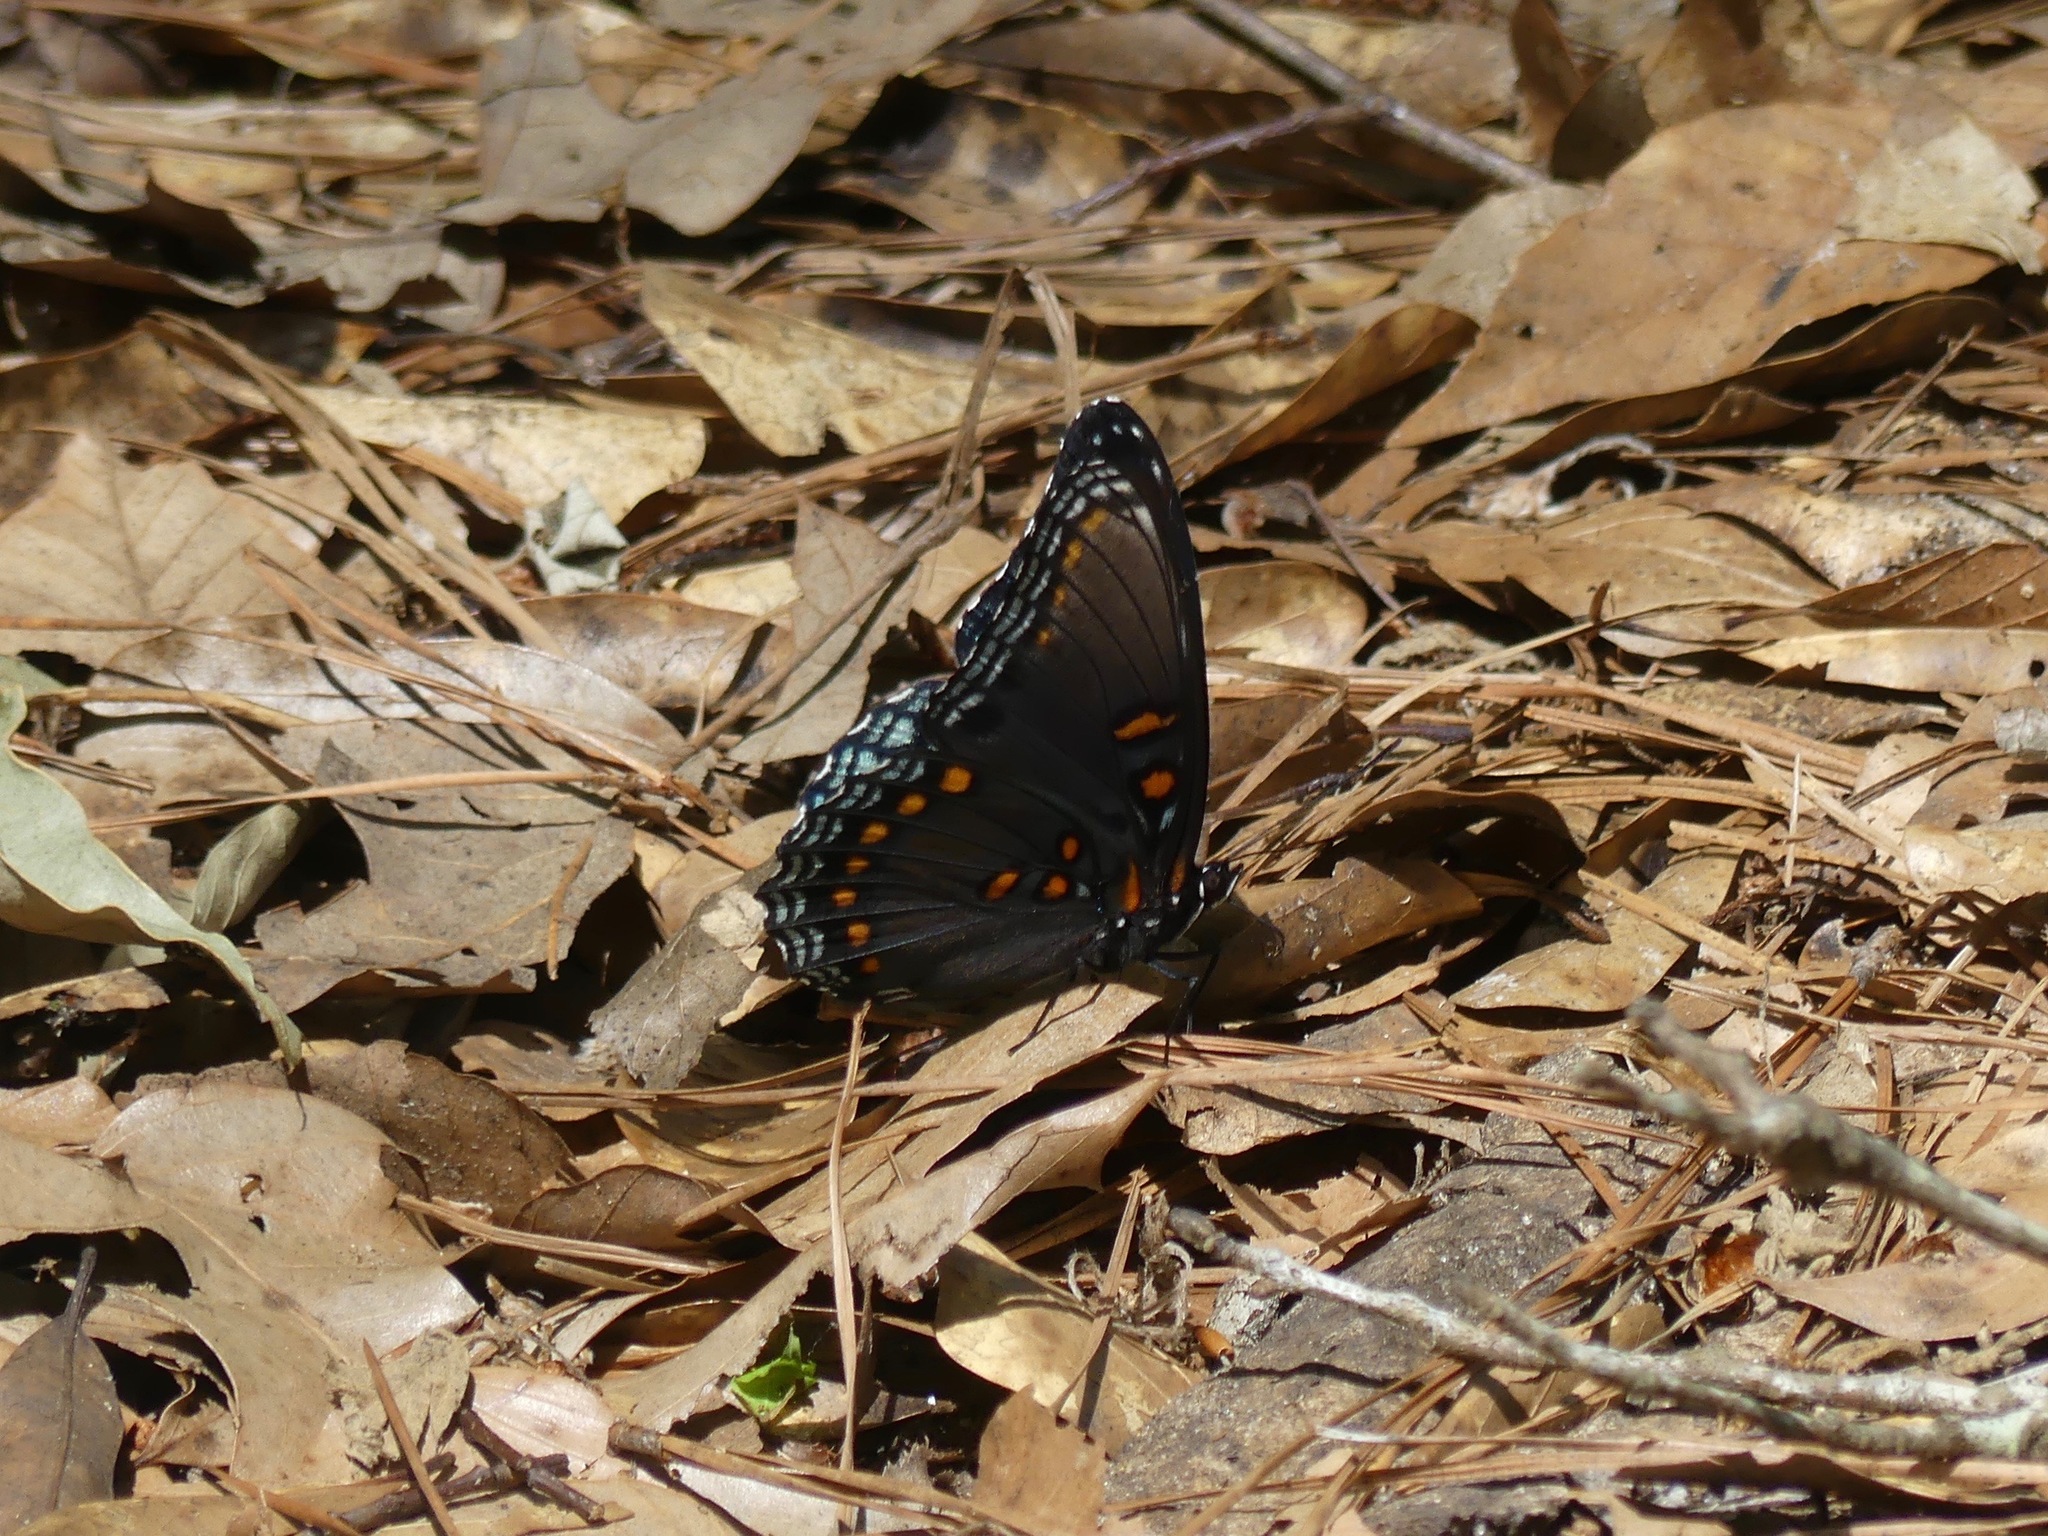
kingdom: Animalia
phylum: Arthropoda
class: Insecta
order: Lepidoptera
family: Nymphalidae
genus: Limenitis
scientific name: Limenitis arthemis
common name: Red-spotted admiral
